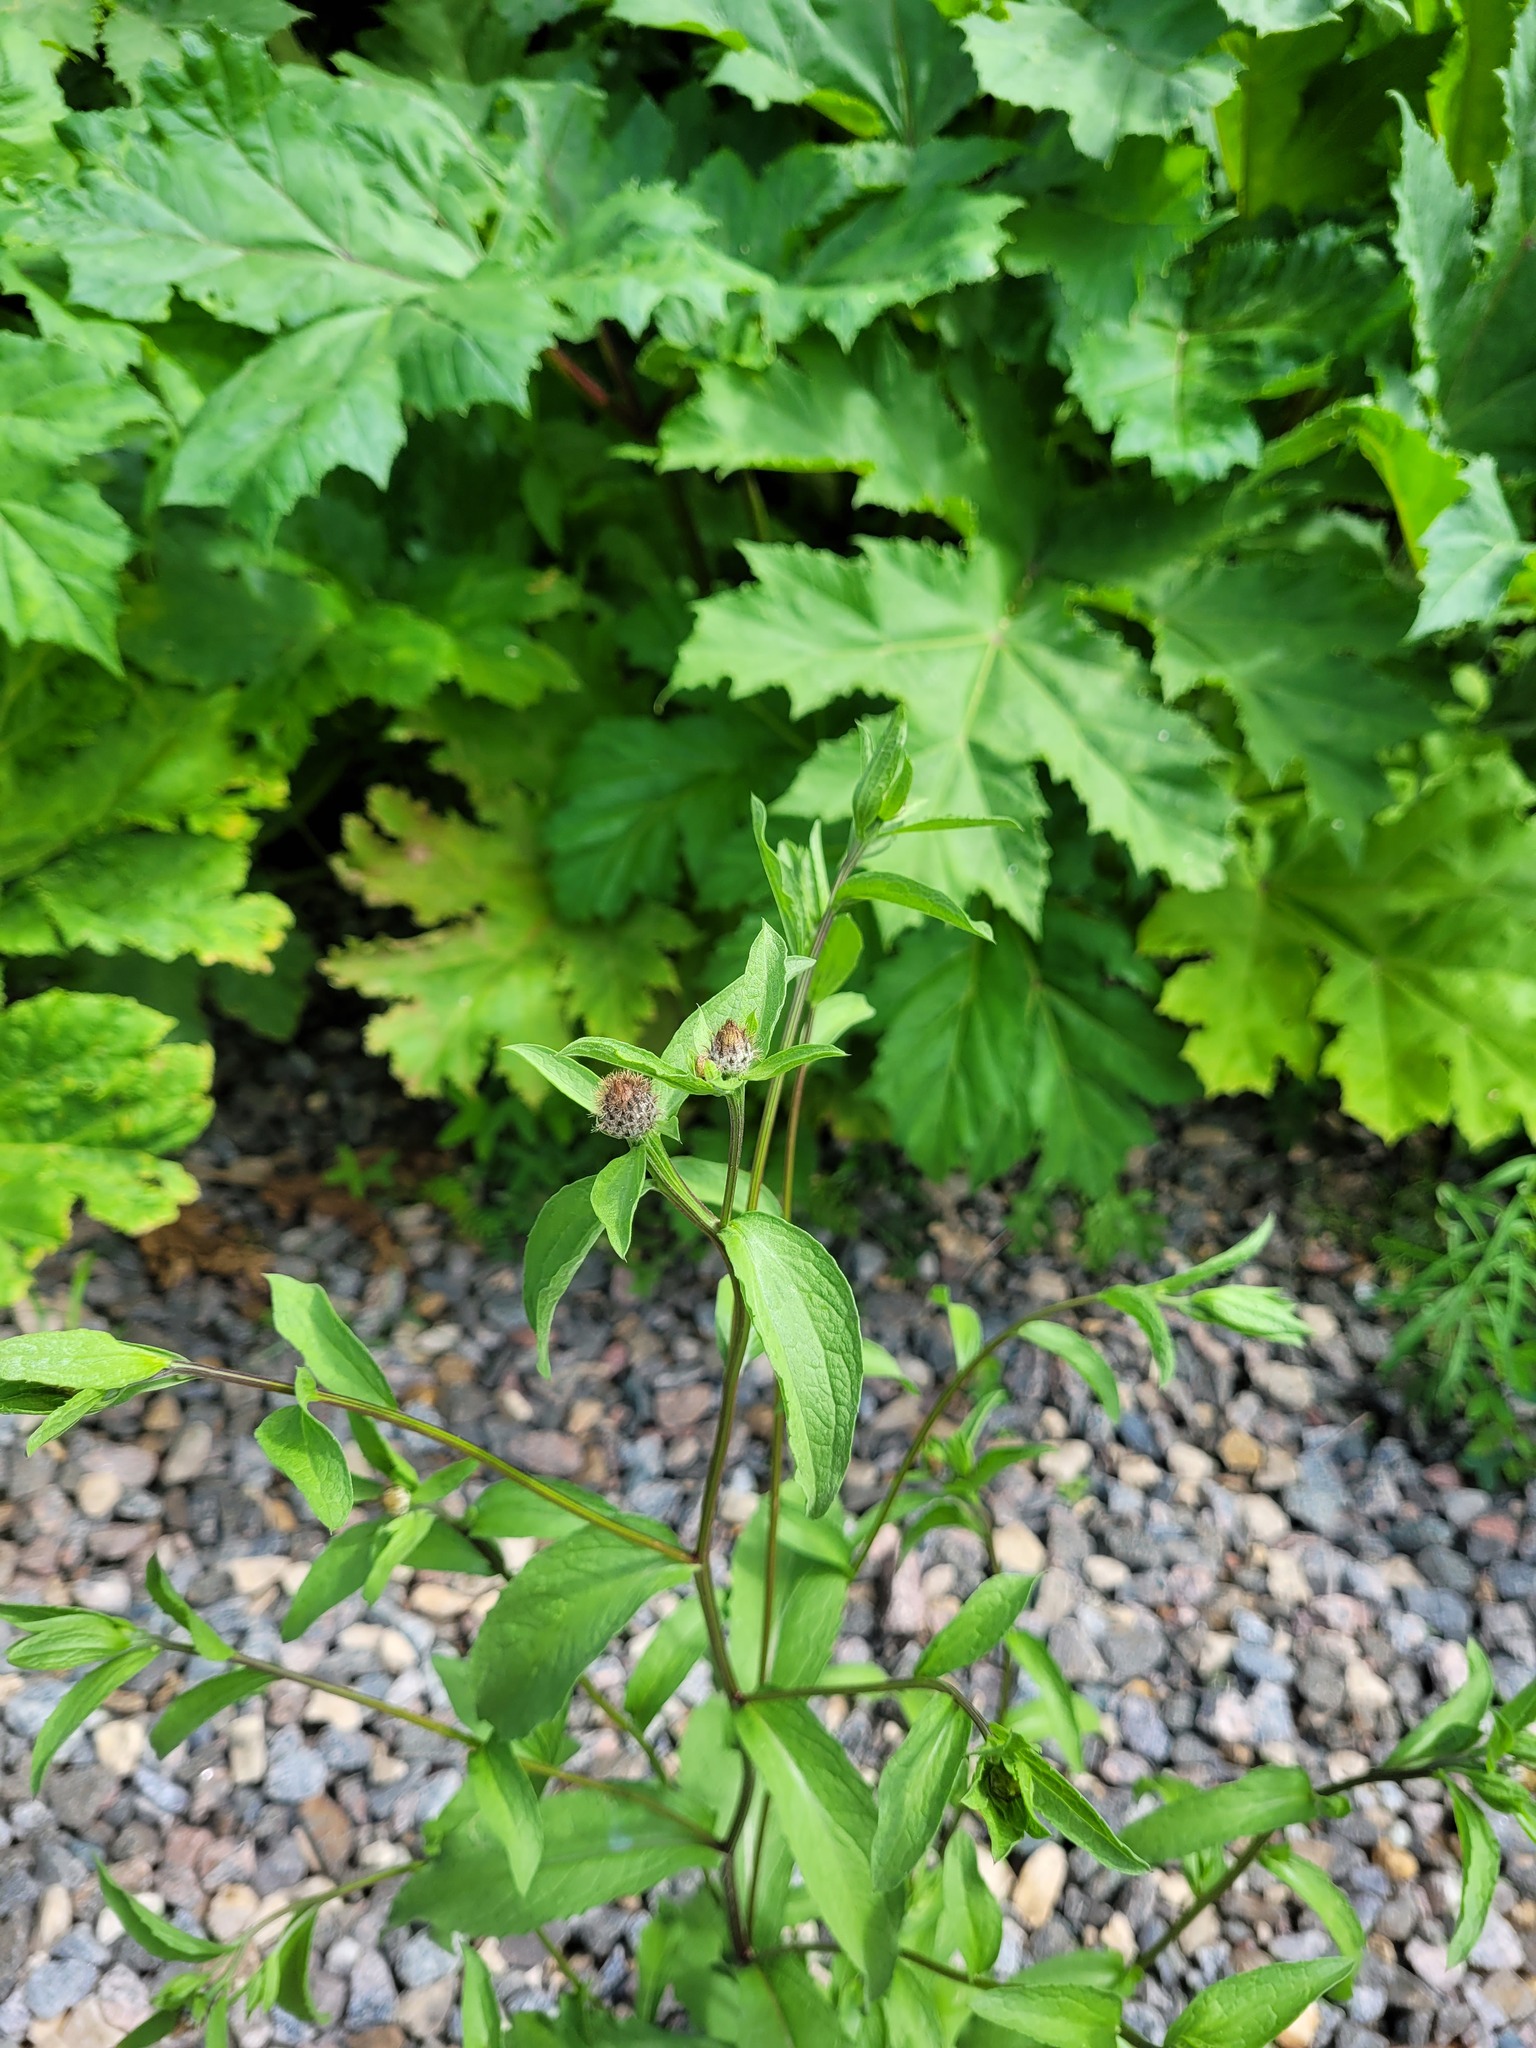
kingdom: Plantae
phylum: Tracheophyta
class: Magnoliopsida
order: Asterales
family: Asteraceae
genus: Centaurea
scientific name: Centaurea phrygia
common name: Wig knapweed
